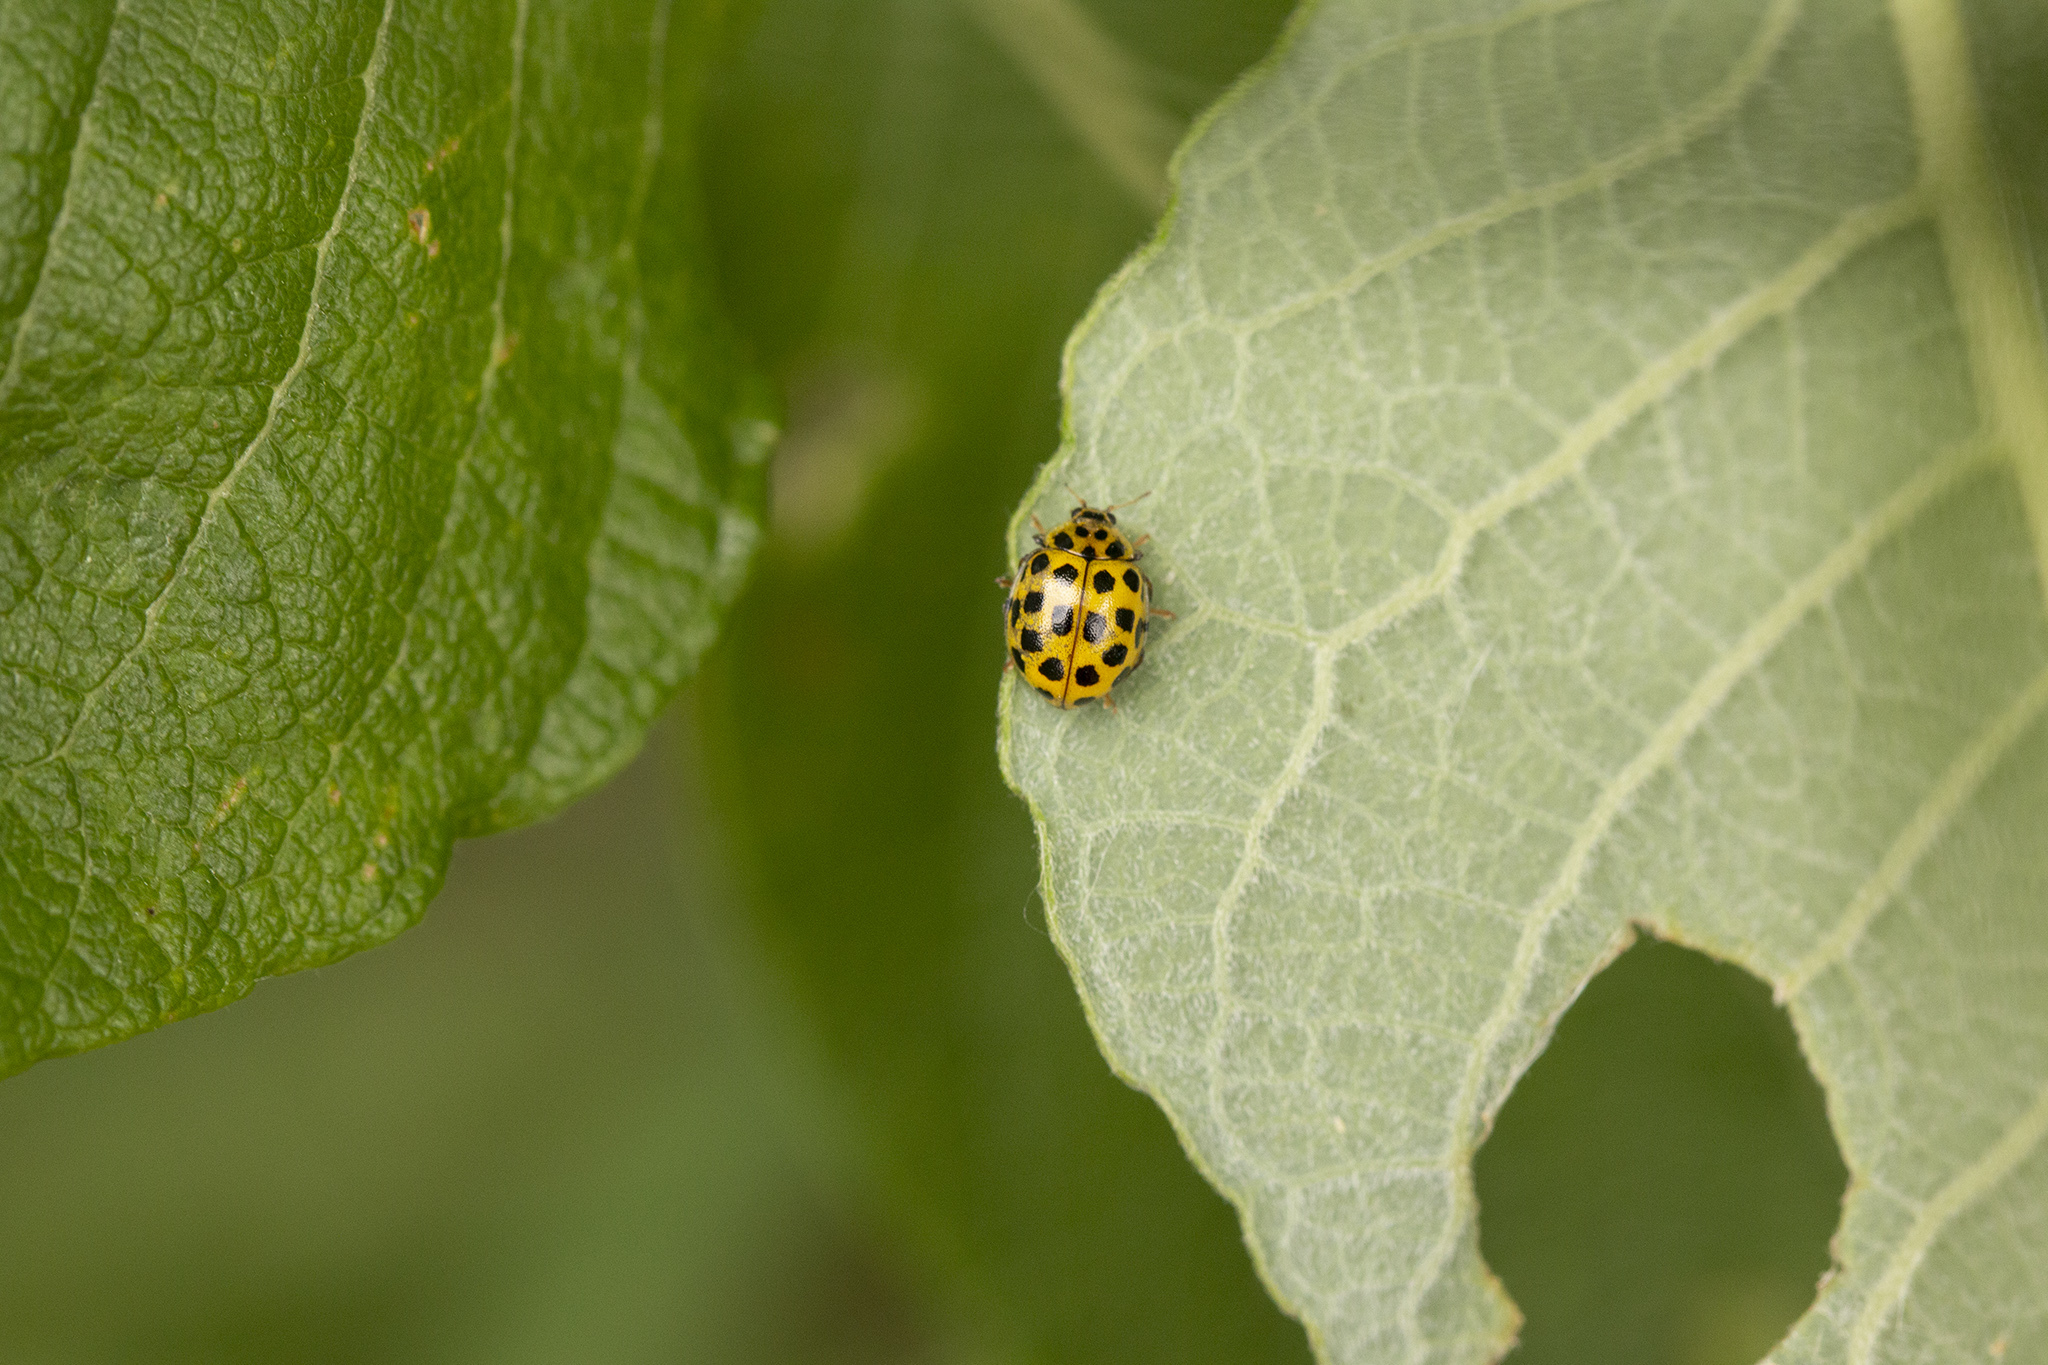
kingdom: Animalia
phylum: Arthropoda
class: Insecta
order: Coleoptera
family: Coccinellidae
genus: Psyllobora
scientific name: Psyllobora vigintiduopunctata
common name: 22-spot ladybird
